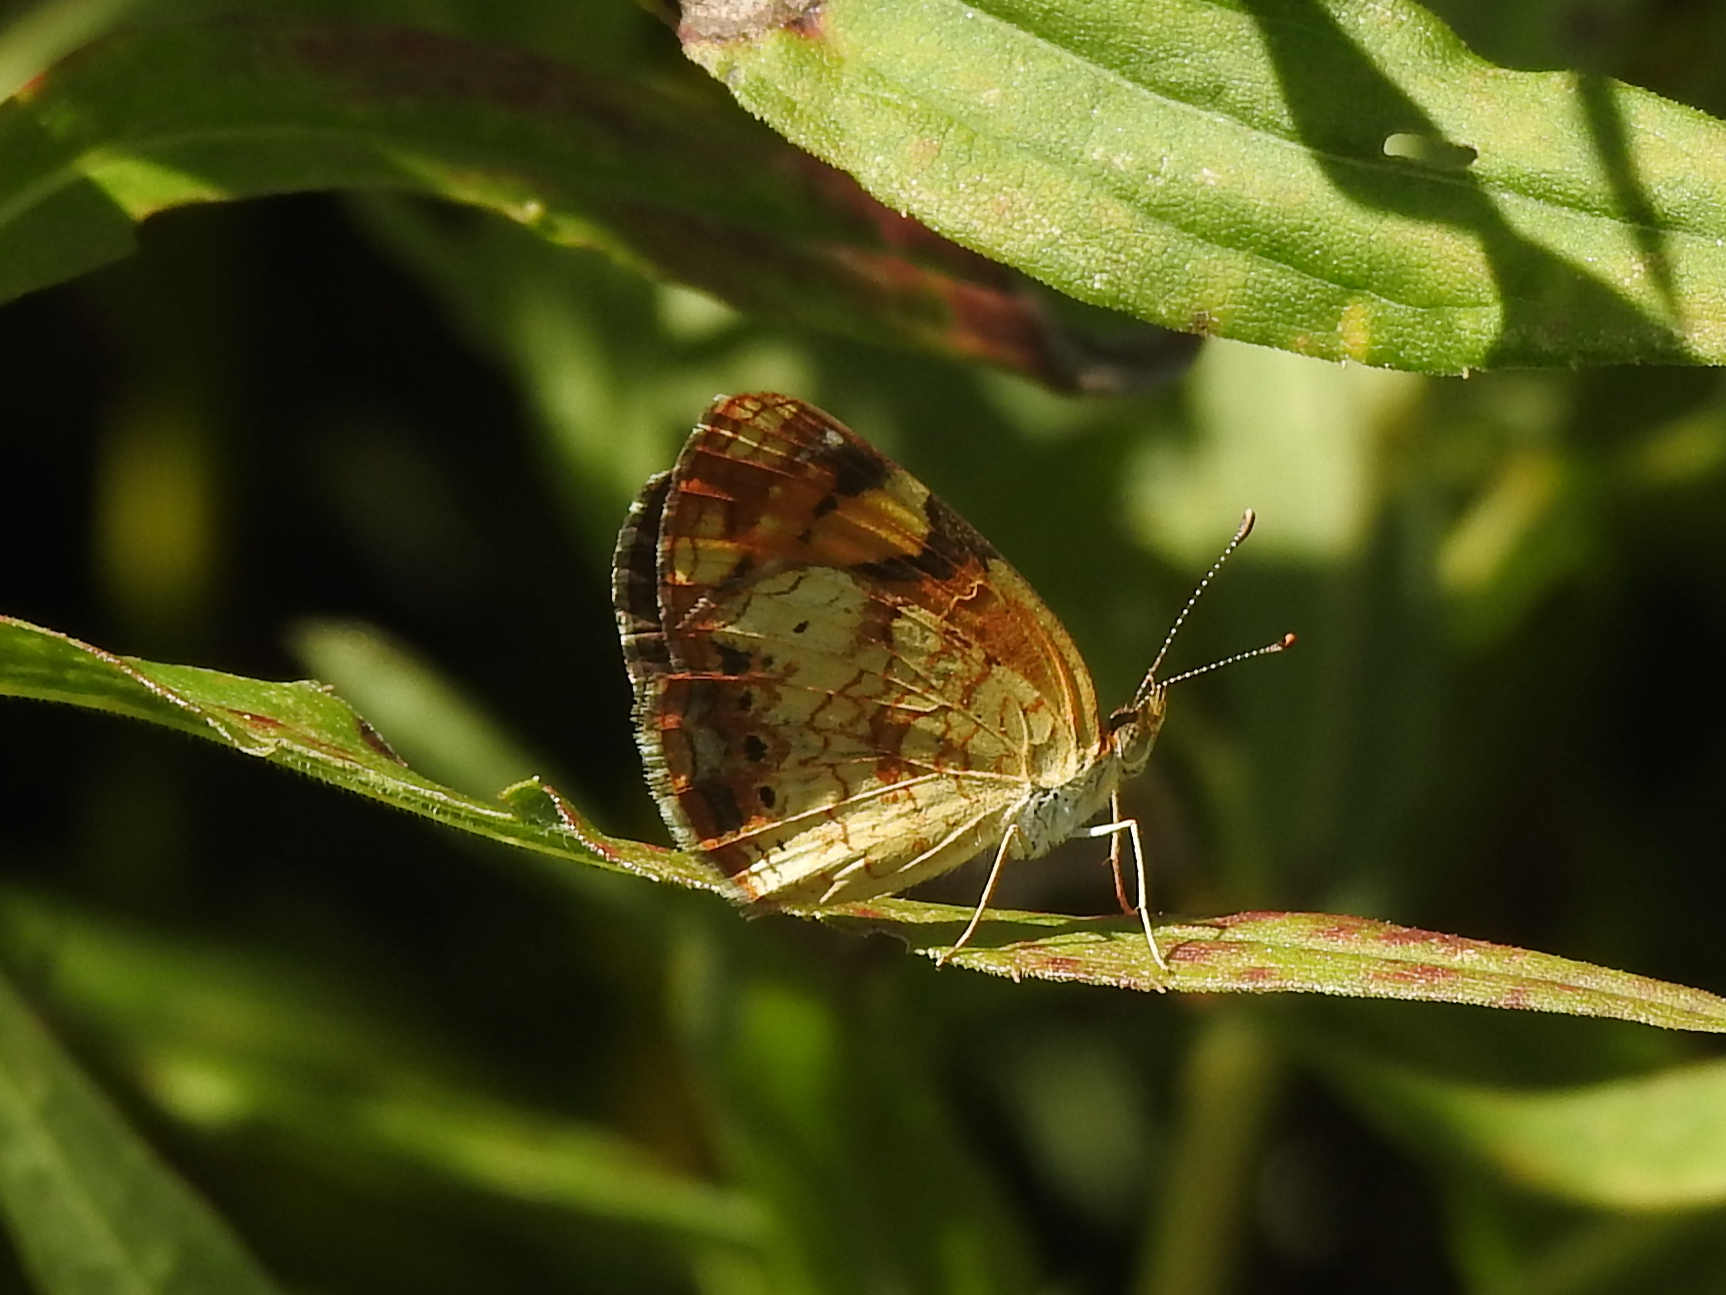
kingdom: Animalia
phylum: Arthropoda
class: Insecta
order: Lepidoptera
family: Nymphalidae
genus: Phyciodes
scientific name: Phyciodes tharos
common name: Pearl crescent
